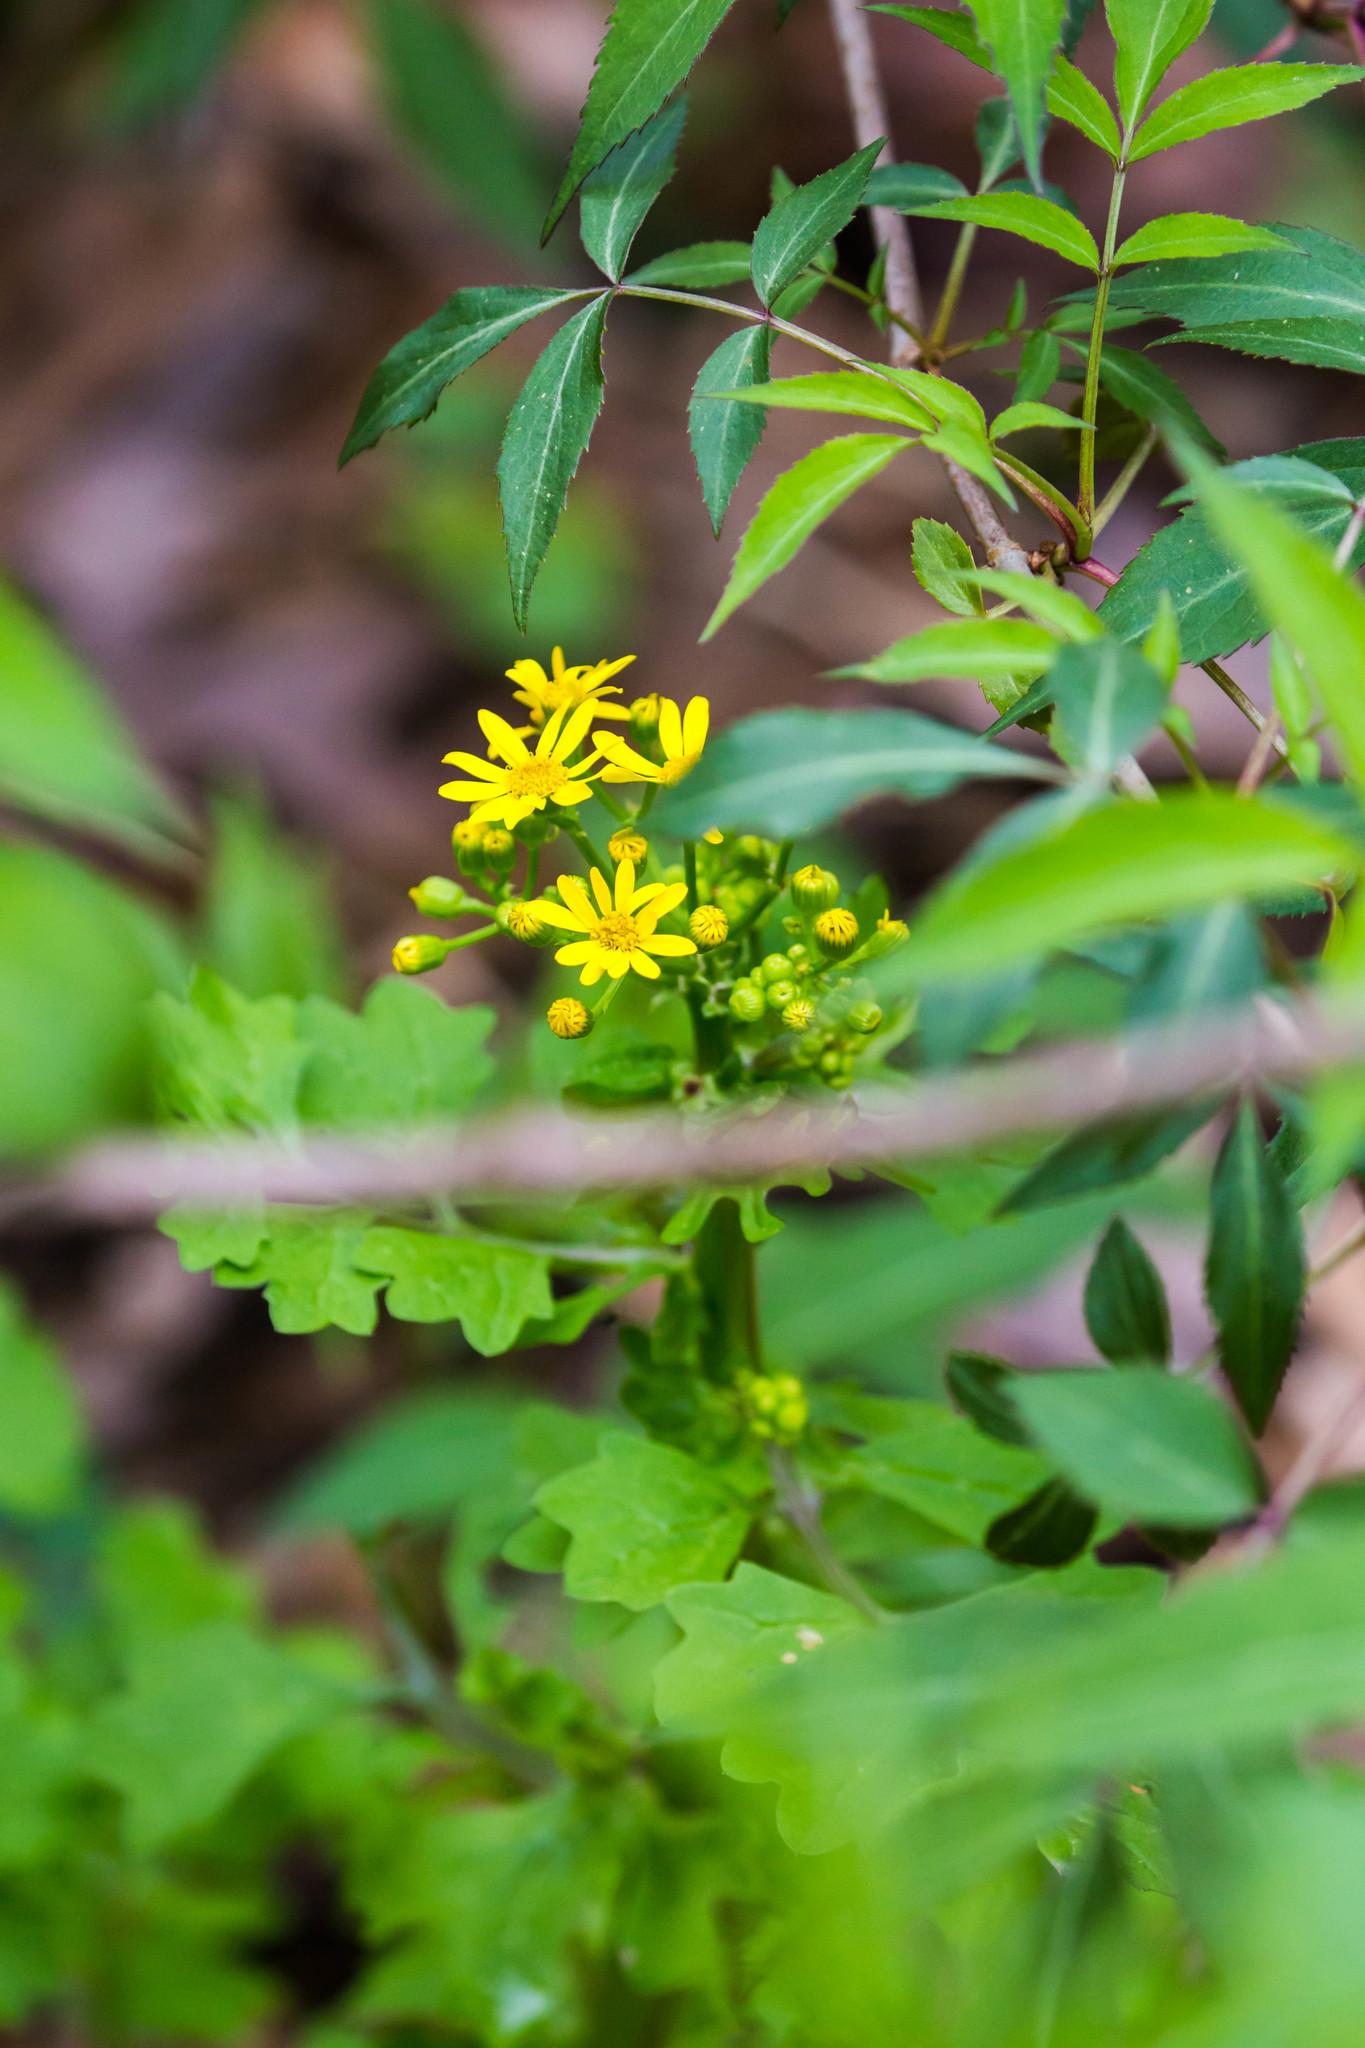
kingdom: Plantae
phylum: Tracheophyta
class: Magnoliopsida
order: Asterales
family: Asteraceae
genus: Packera
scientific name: Packera glabella
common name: Butterweed
